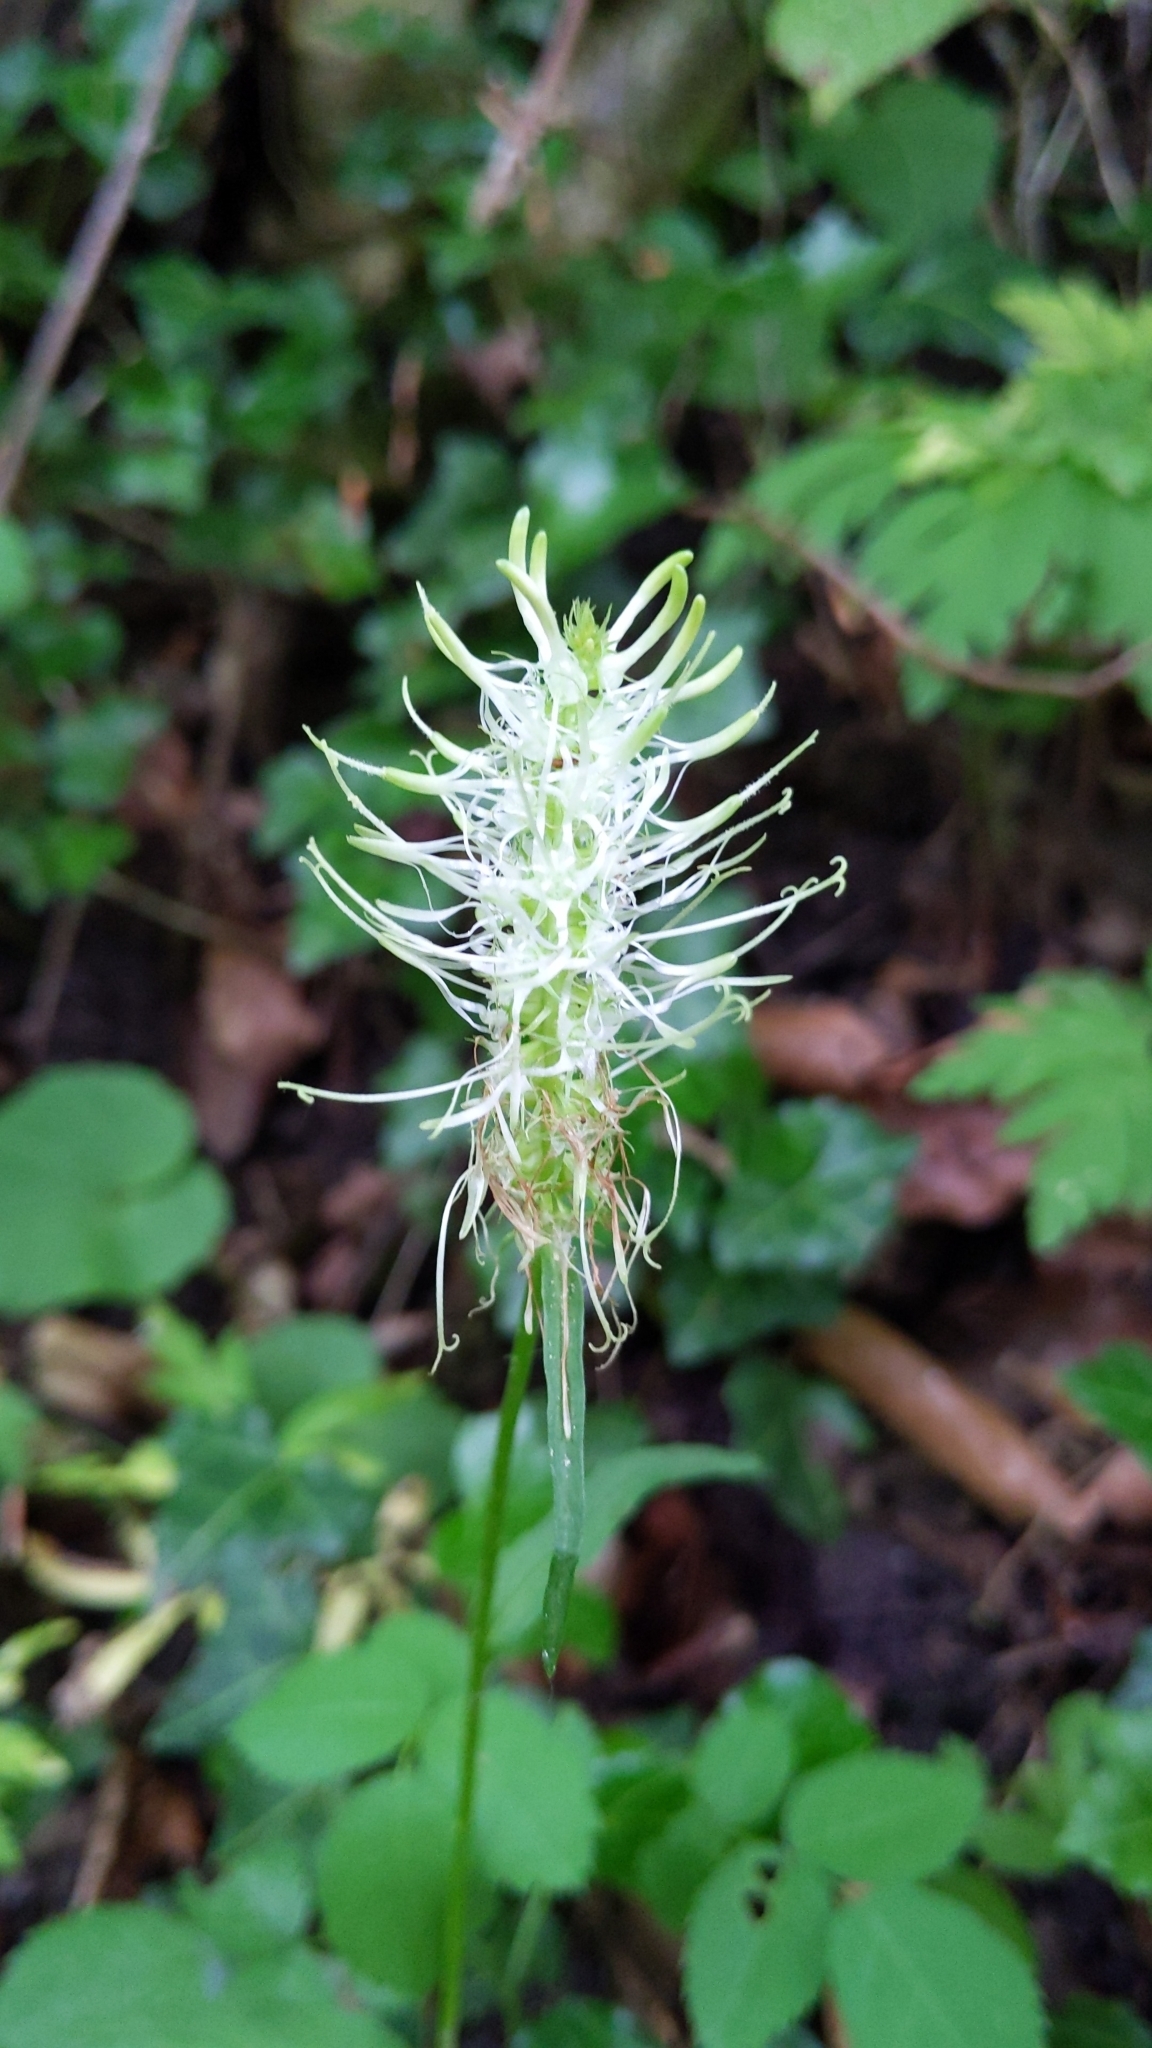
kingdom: Plantae
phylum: Tracheophyta
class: Magnoliopsida
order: Asterales
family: Campanulaceae
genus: Phyteuma
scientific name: Phyteuma spicatum
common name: Spiked rampion
